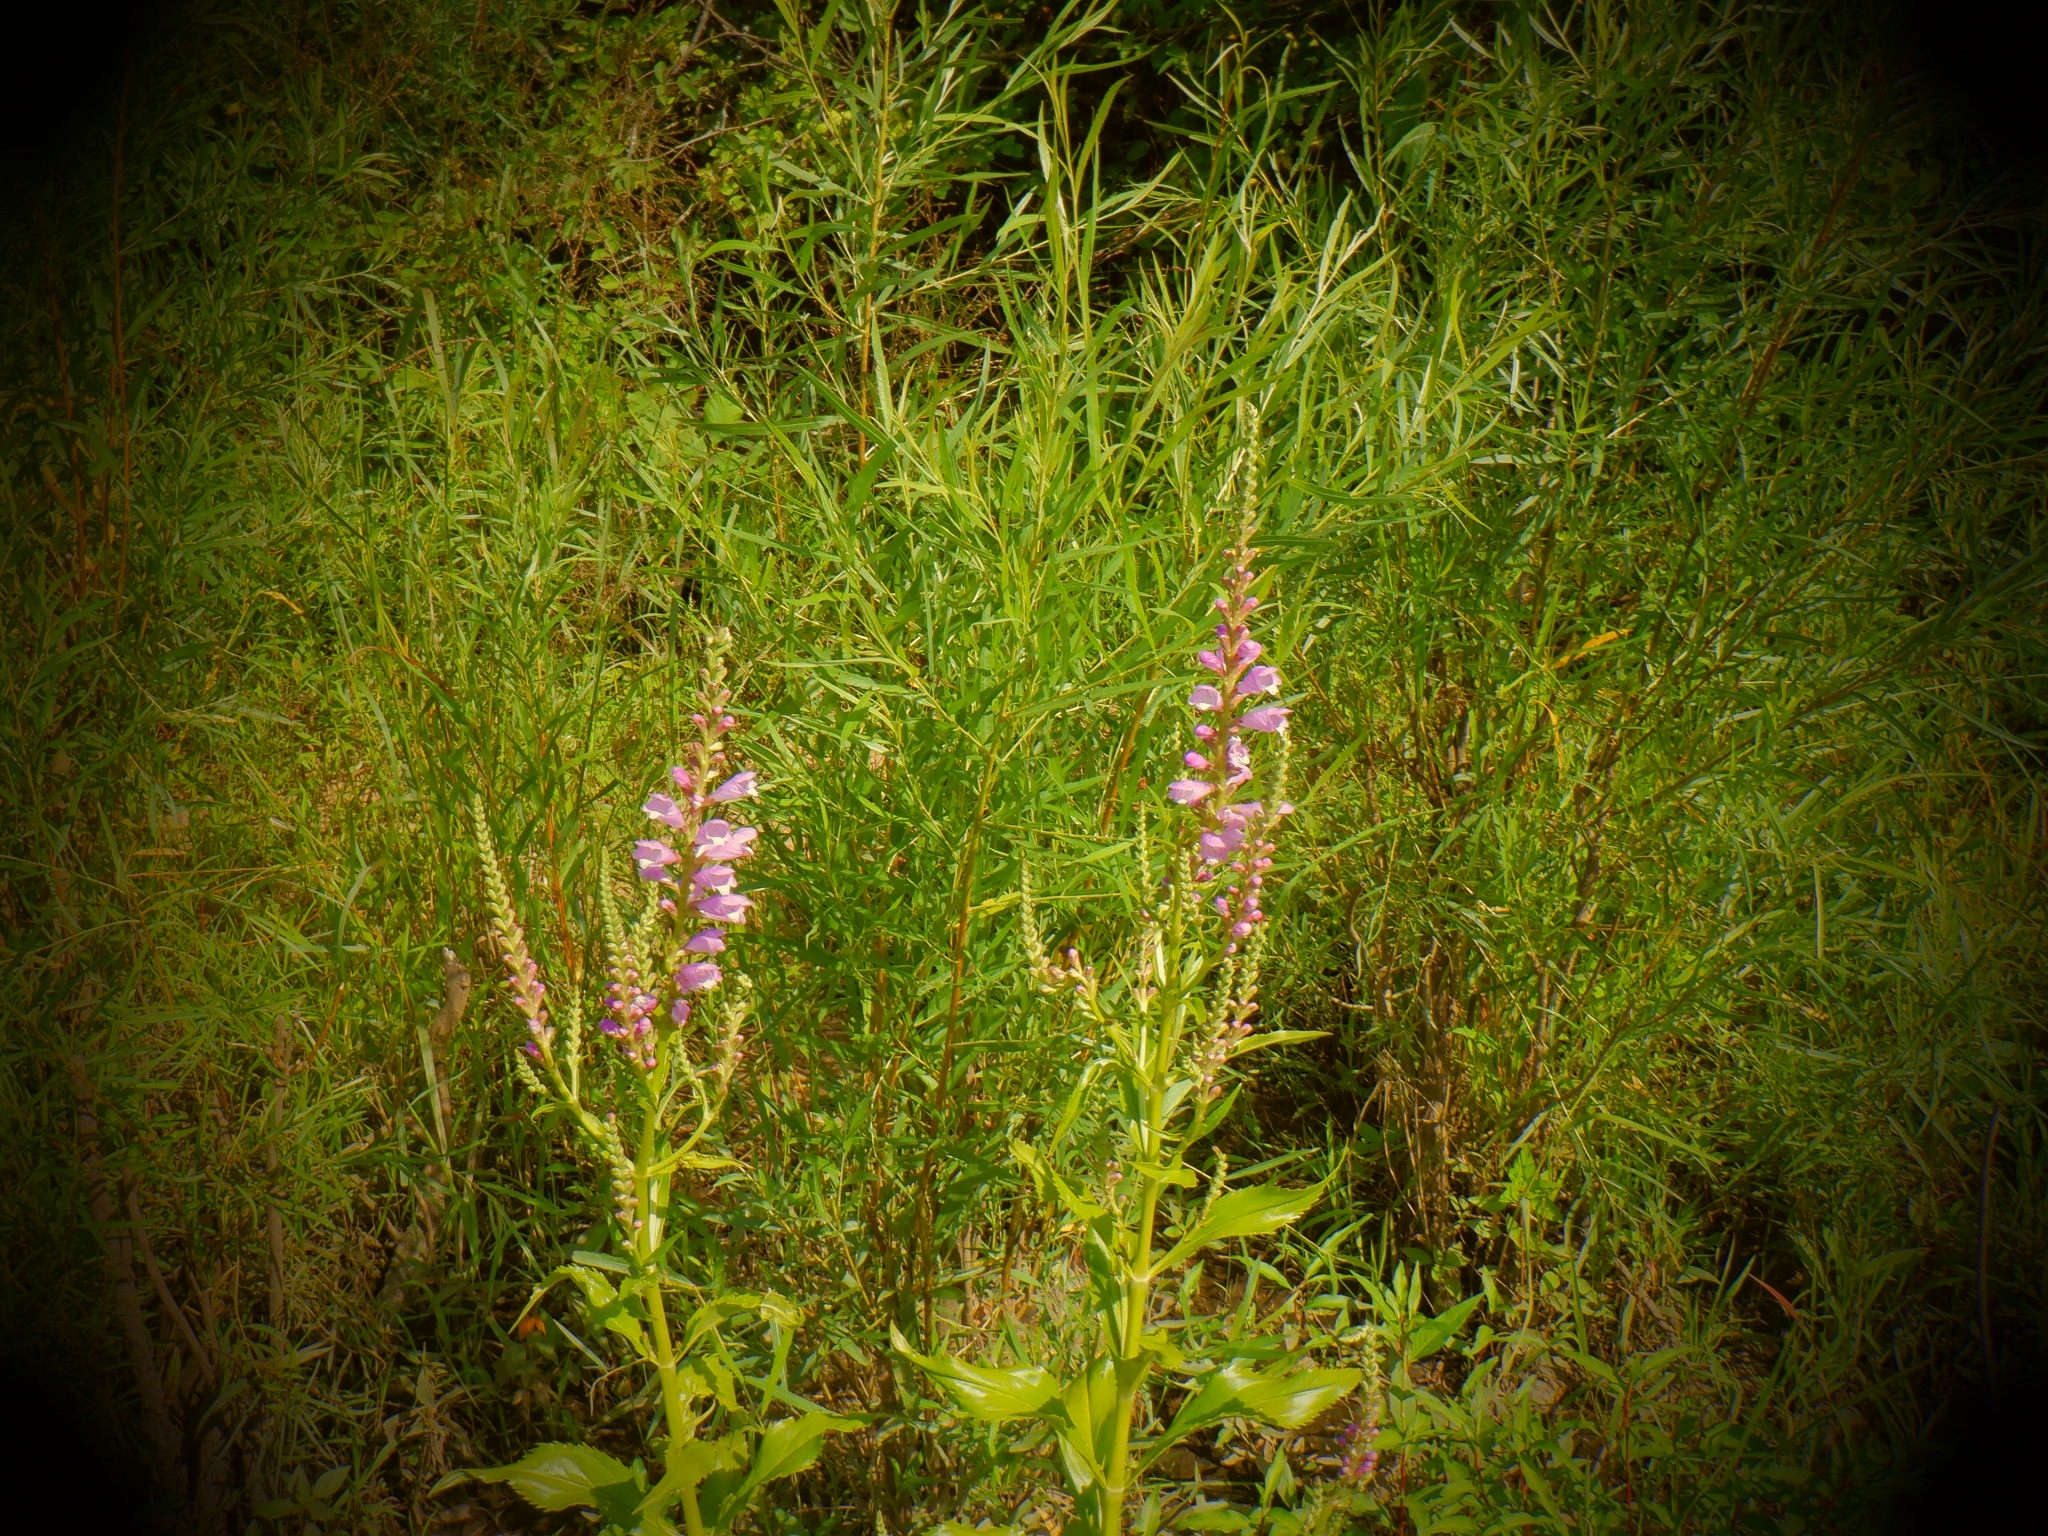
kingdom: Plantae
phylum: Tracheophyta
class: Magnoliopsida
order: Lamiales
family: Lamiaceae
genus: Physostegia
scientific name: Physostegia virginiana
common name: Obedient-plant
